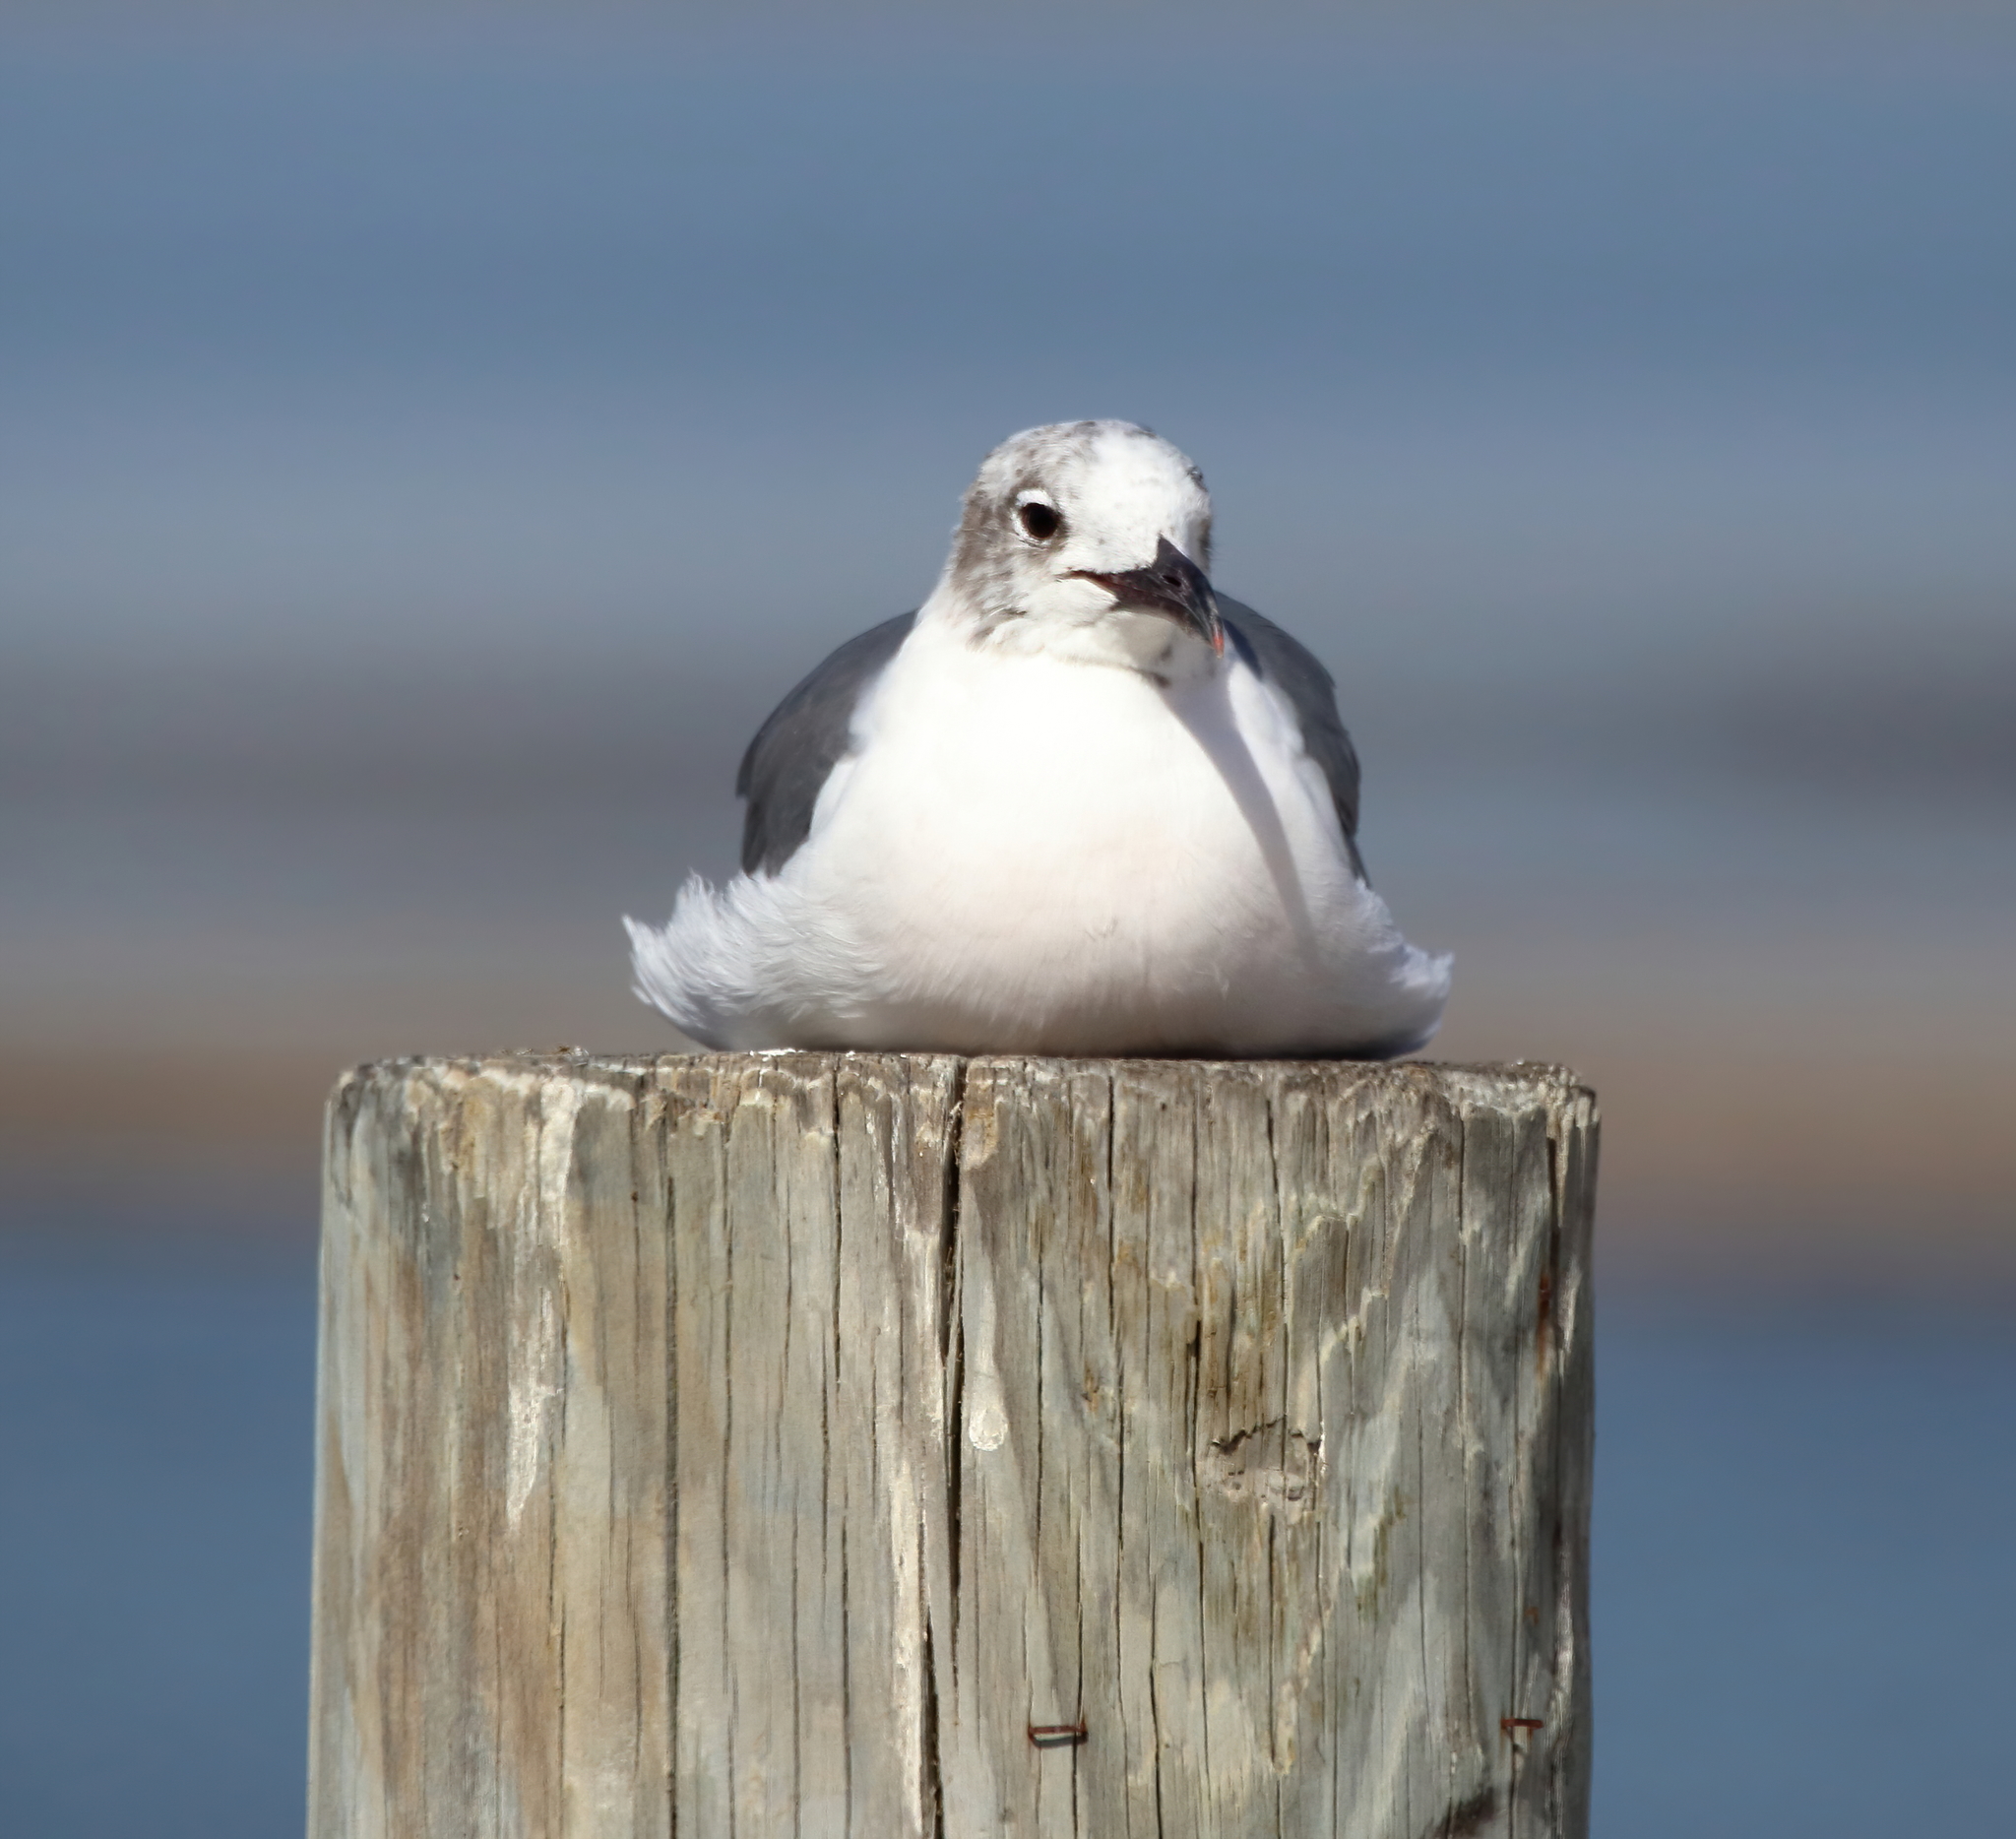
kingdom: Animalia
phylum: Chordata
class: Aves
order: Charadriiformes
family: Laridae
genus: Leucophaeus
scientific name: Leucophaeus atricilla
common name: Laughing gull
